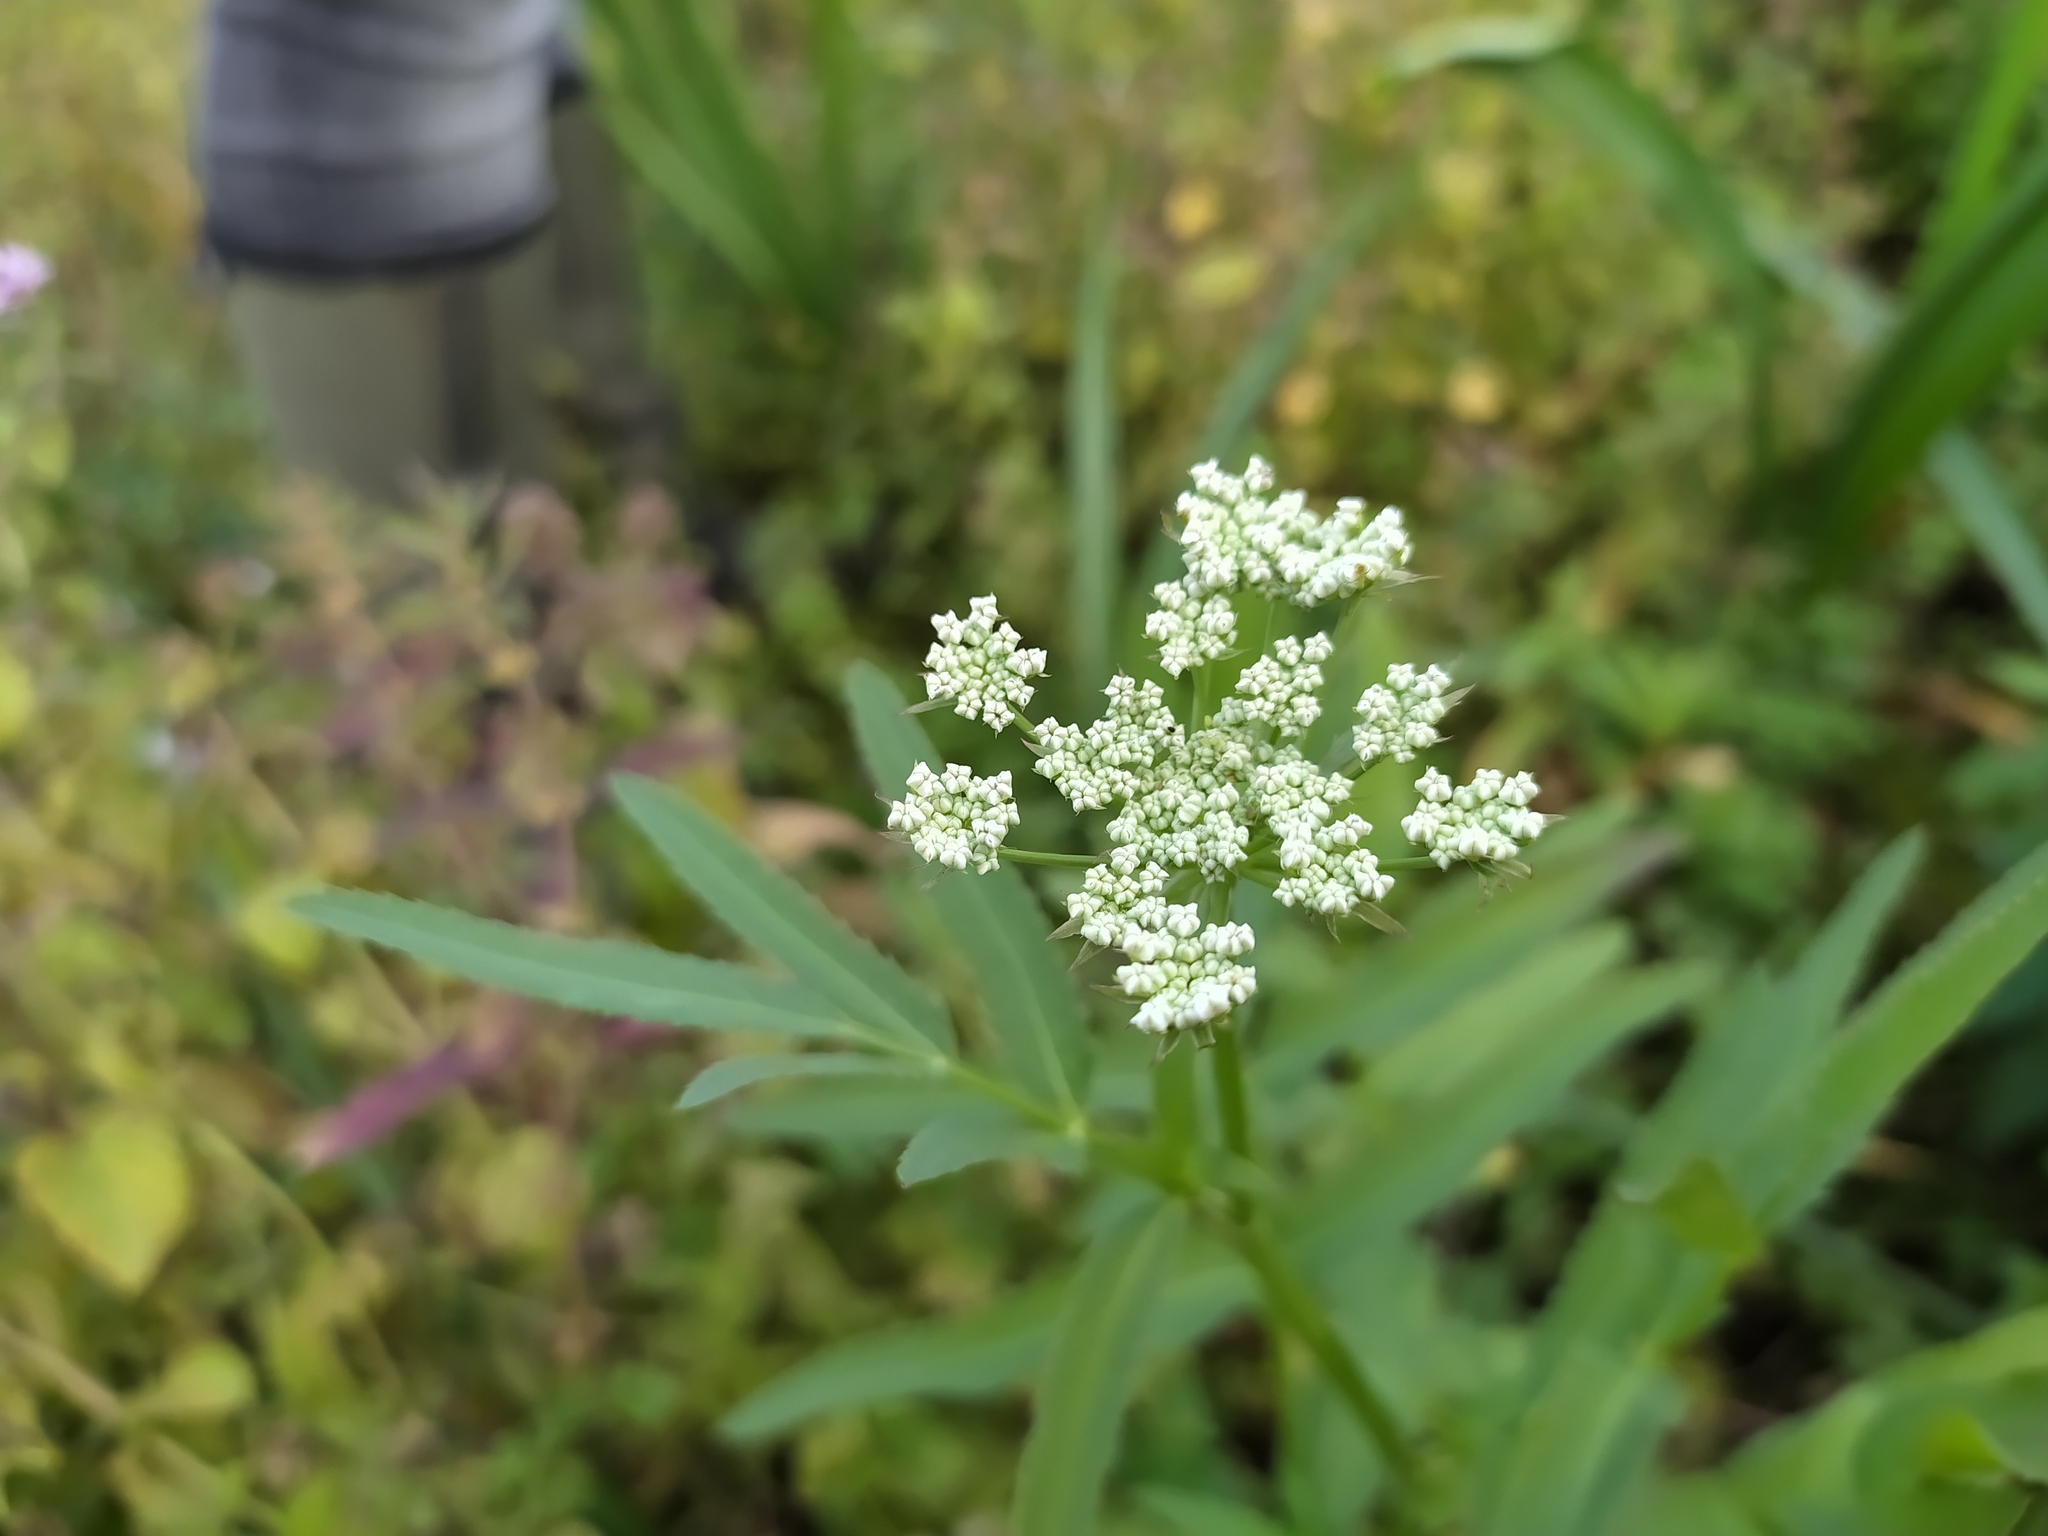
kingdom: Plantae
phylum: Tracheophyta
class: Magnoliopsida
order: Apiales
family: Apiaceae
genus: Sium
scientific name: Sium latifolium
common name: Greater water-parsnip
